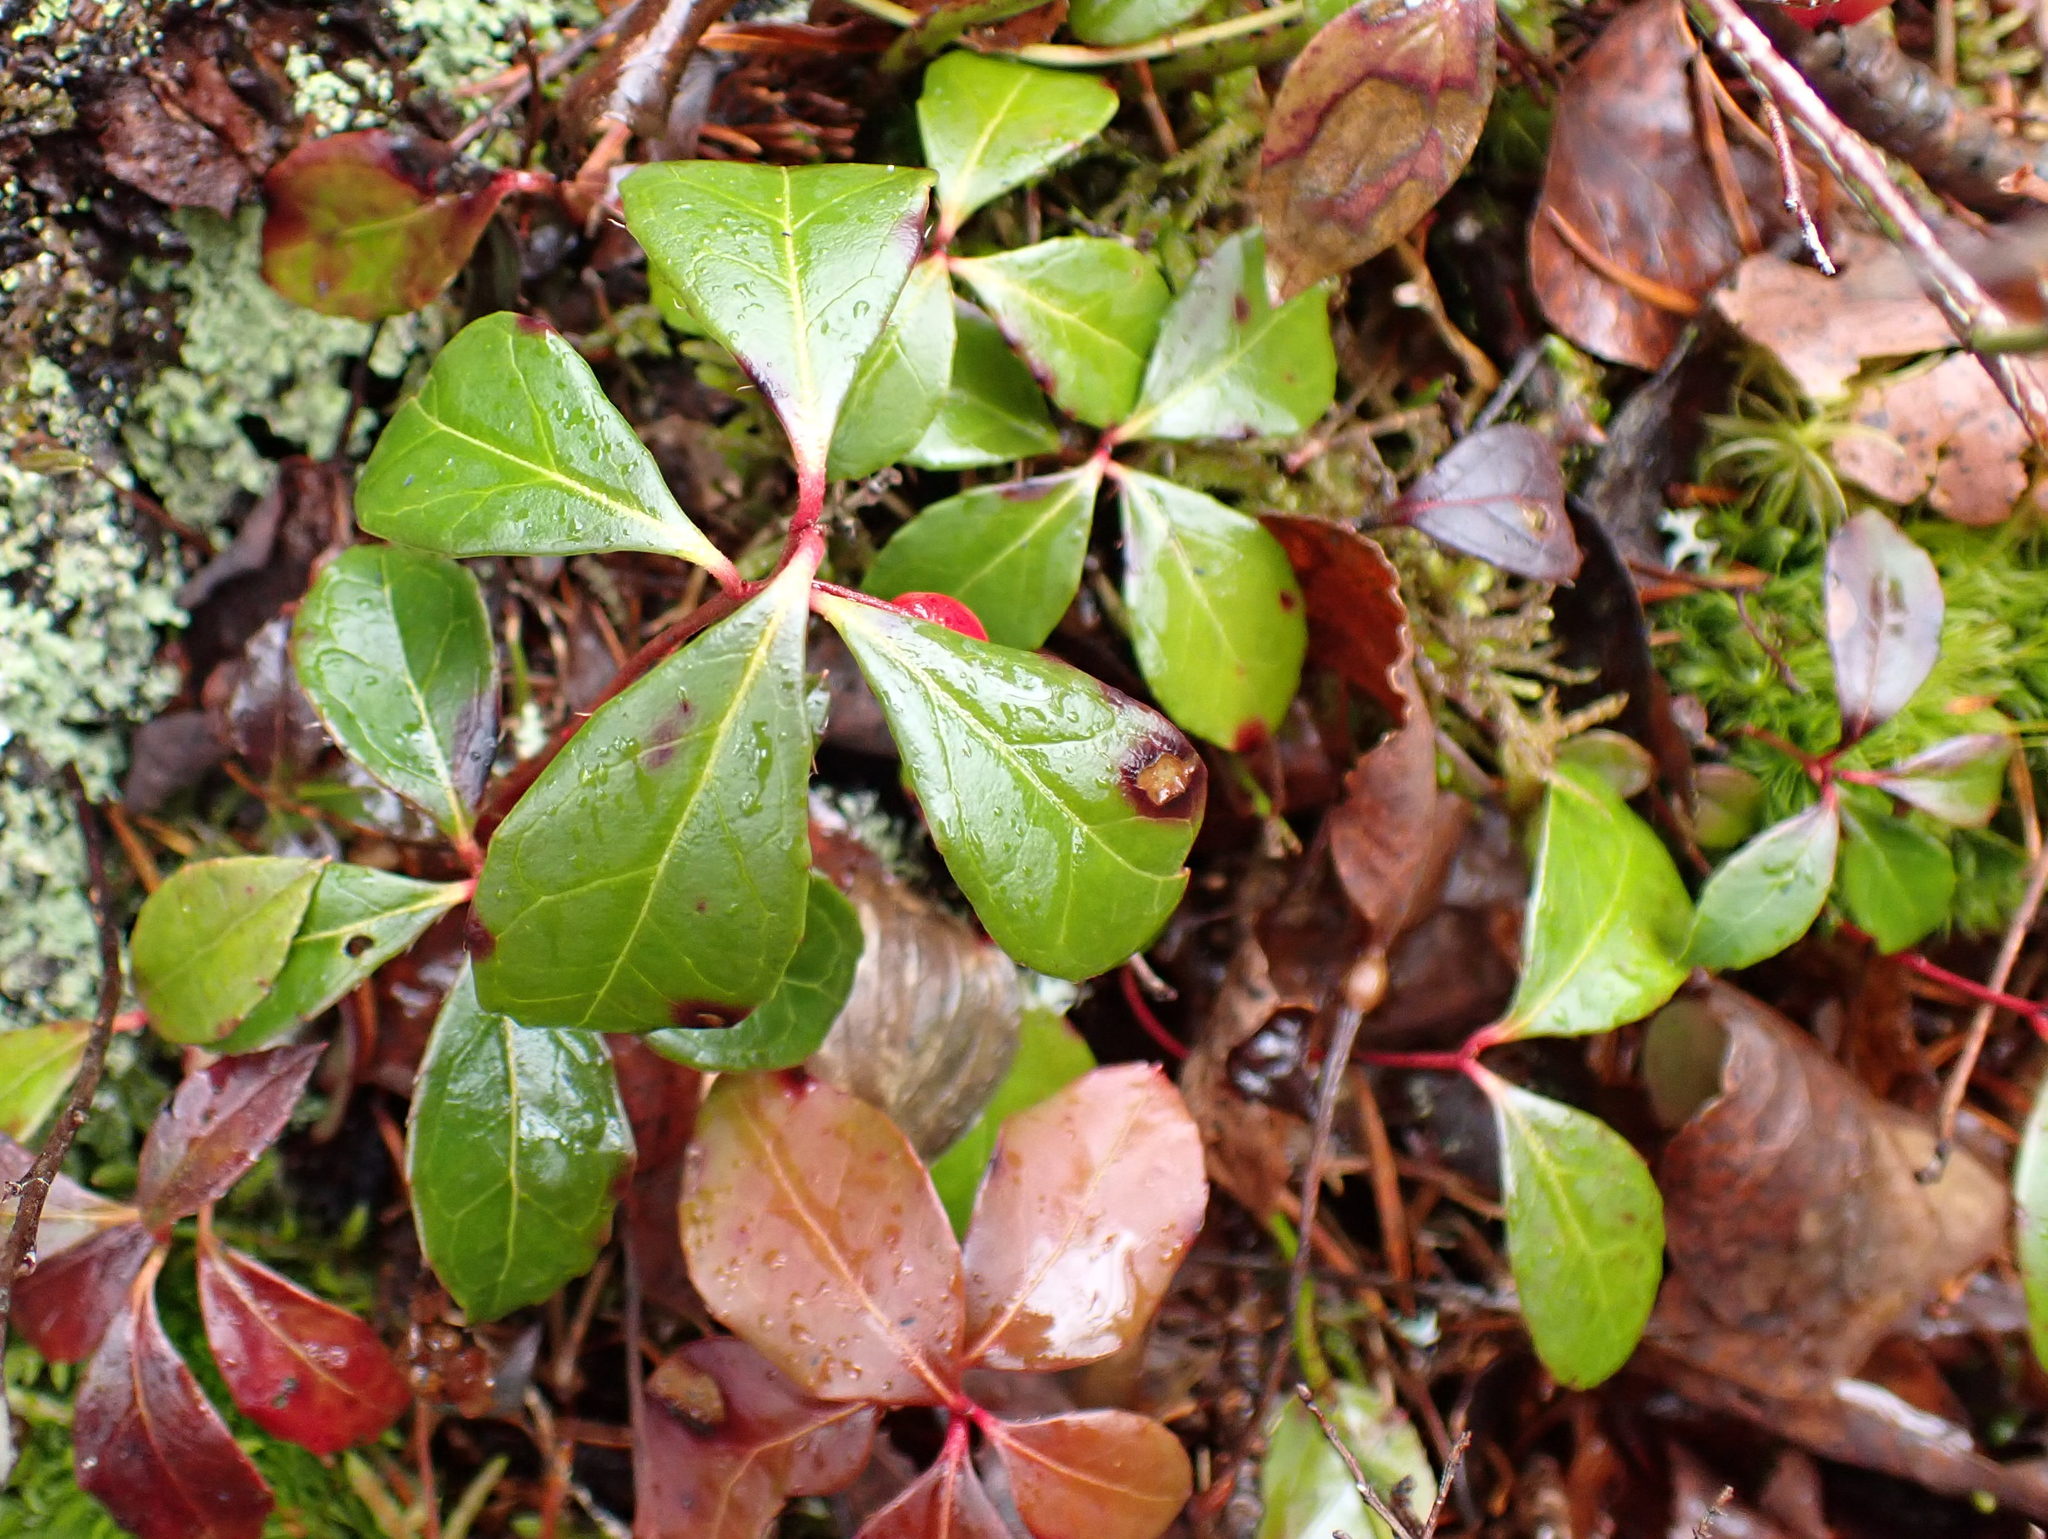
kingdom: Plantae
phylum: Tracheophyta
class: Magnoliopsida
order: Ericales
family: Ericaceae
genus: Gaultheria
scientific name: Gaultheria procumbens
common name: Checkerberry
